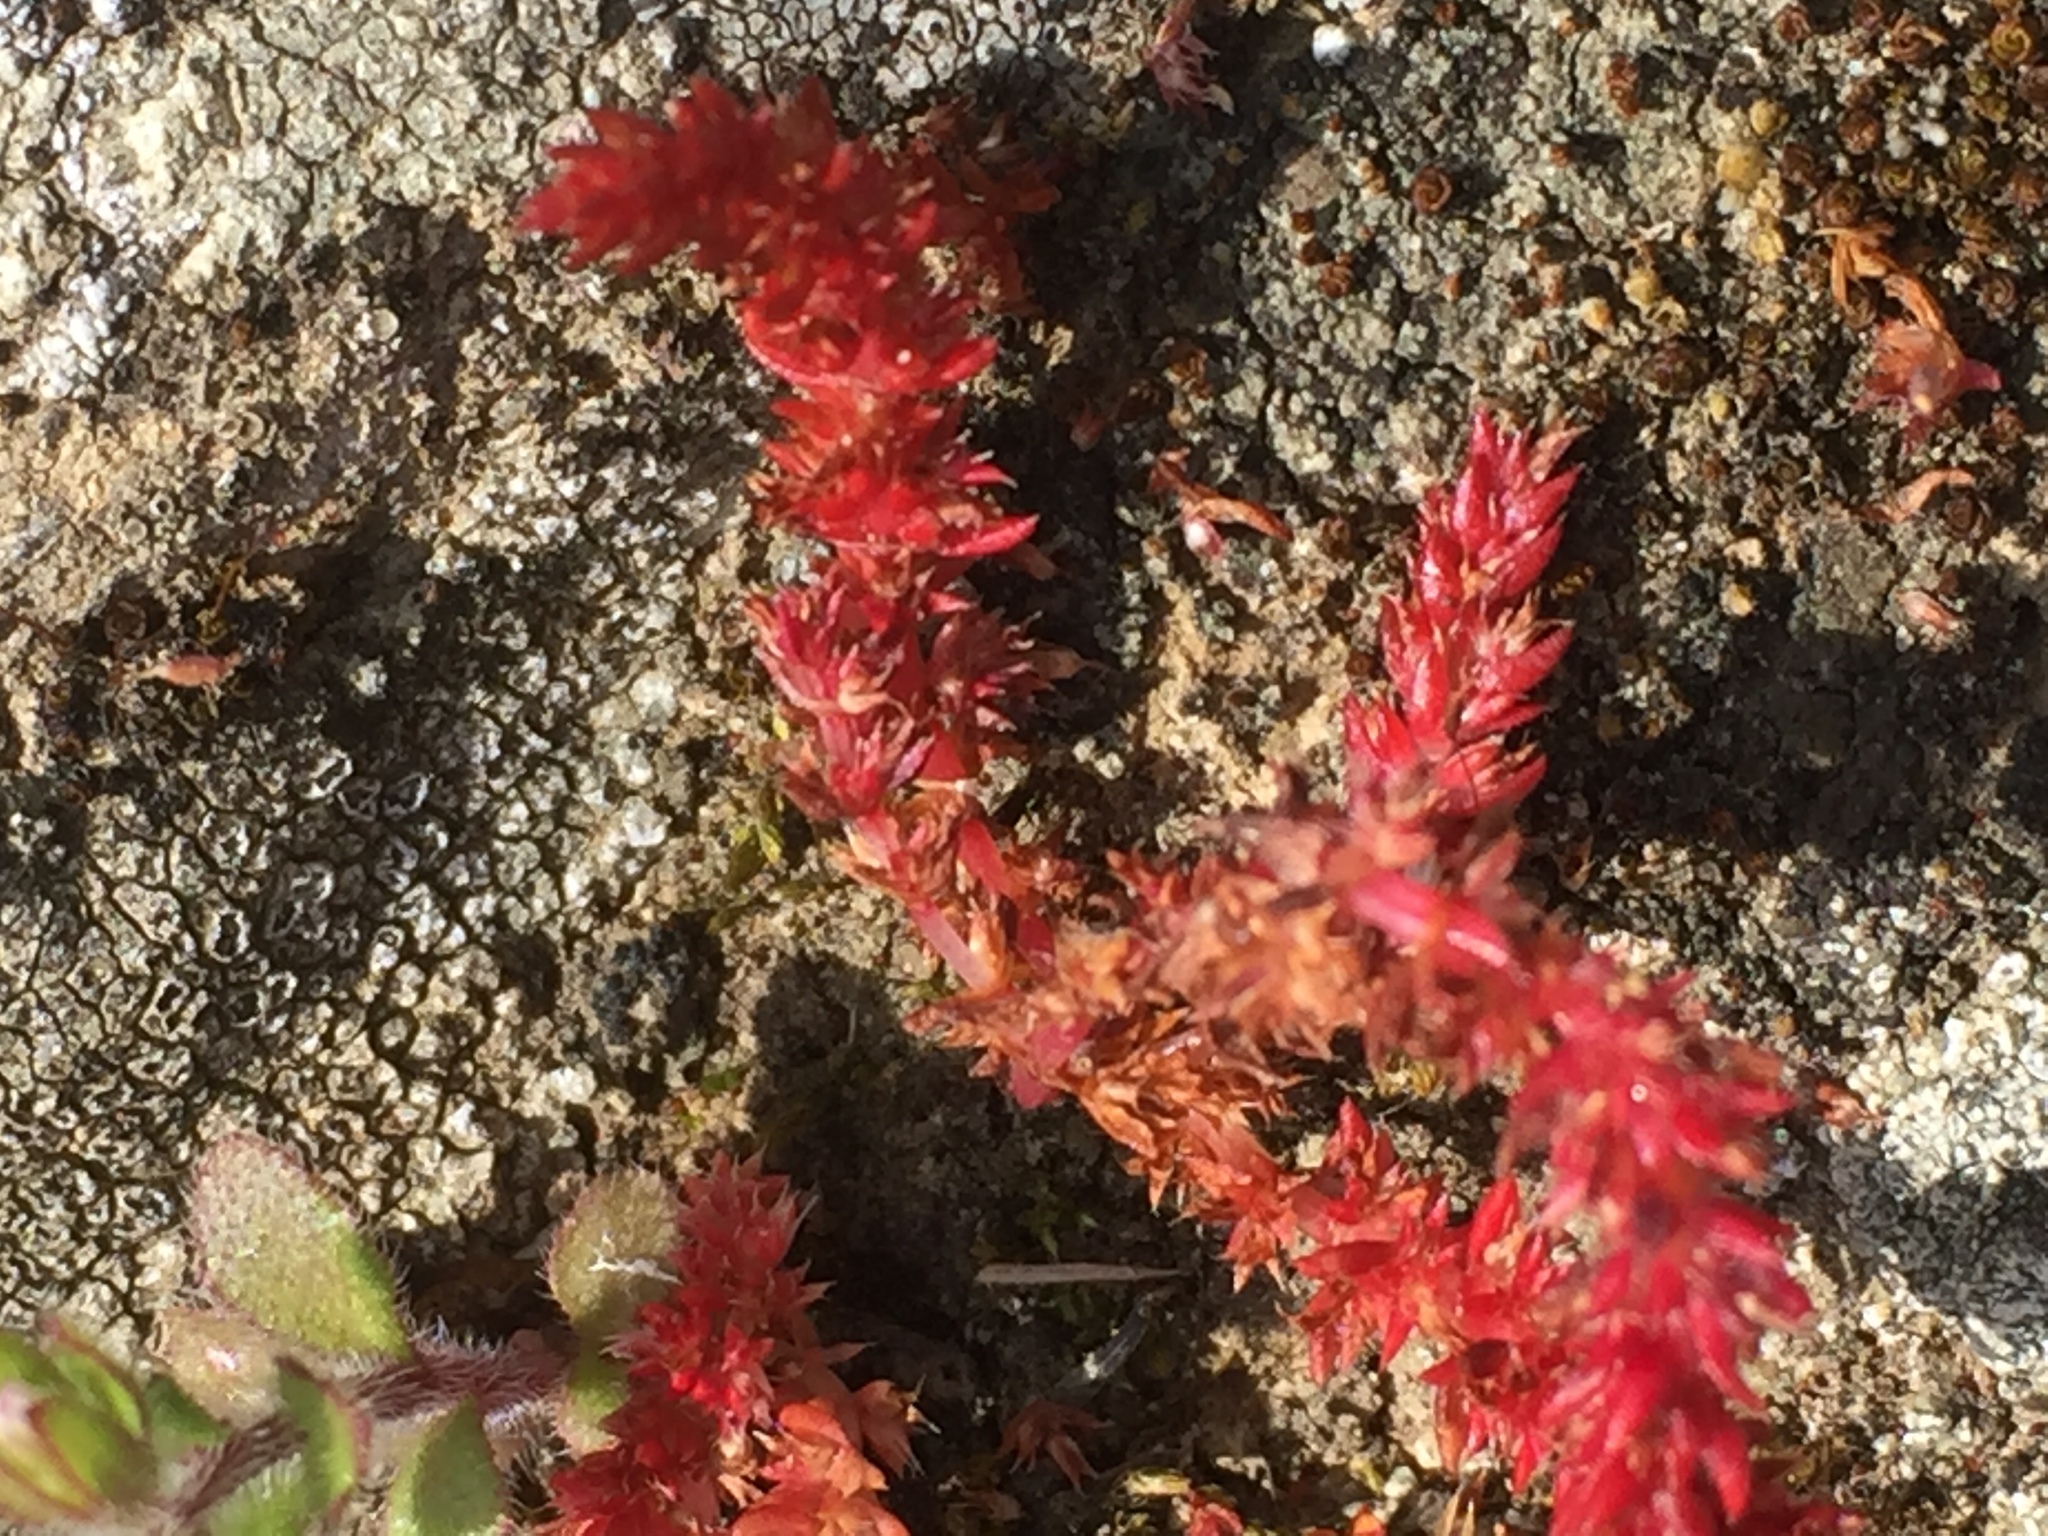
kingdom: Plantae
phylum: Tracheophyta
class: Magnoliopsida
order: Saxifragales
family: Crassulaceae
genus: Crassula
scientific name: Crassula tillaea
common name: Mossy stonecrop
